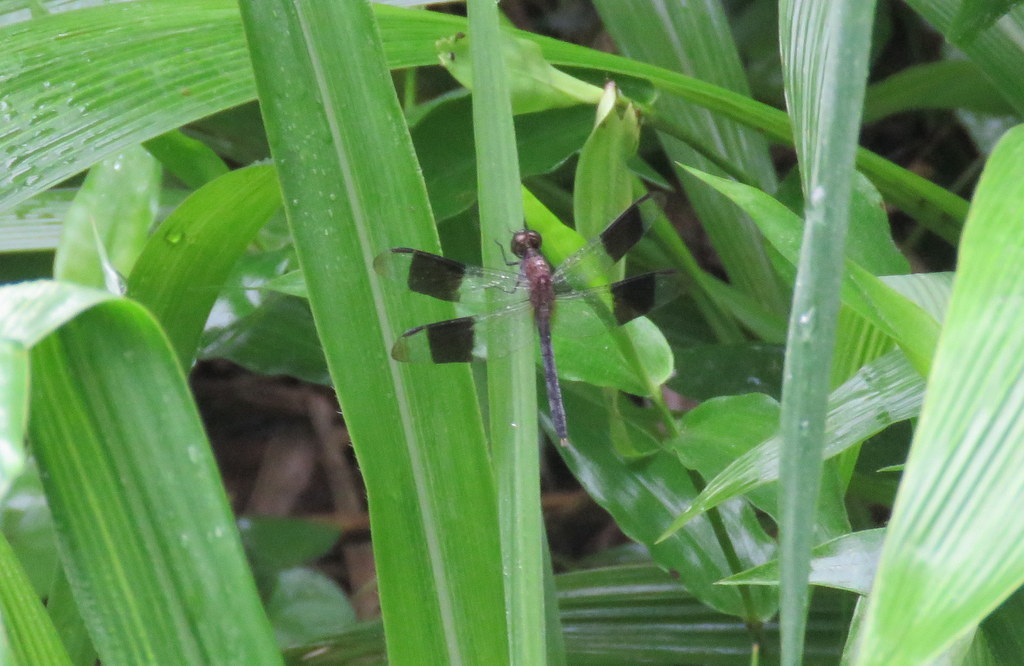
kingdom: Animalia
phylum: Arthropoda
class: Insecta
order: Odonata
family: Libellulidae
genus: Erythrodiplax
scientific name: Erythrodiplax umbrata
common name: Band-winged dragonlet
